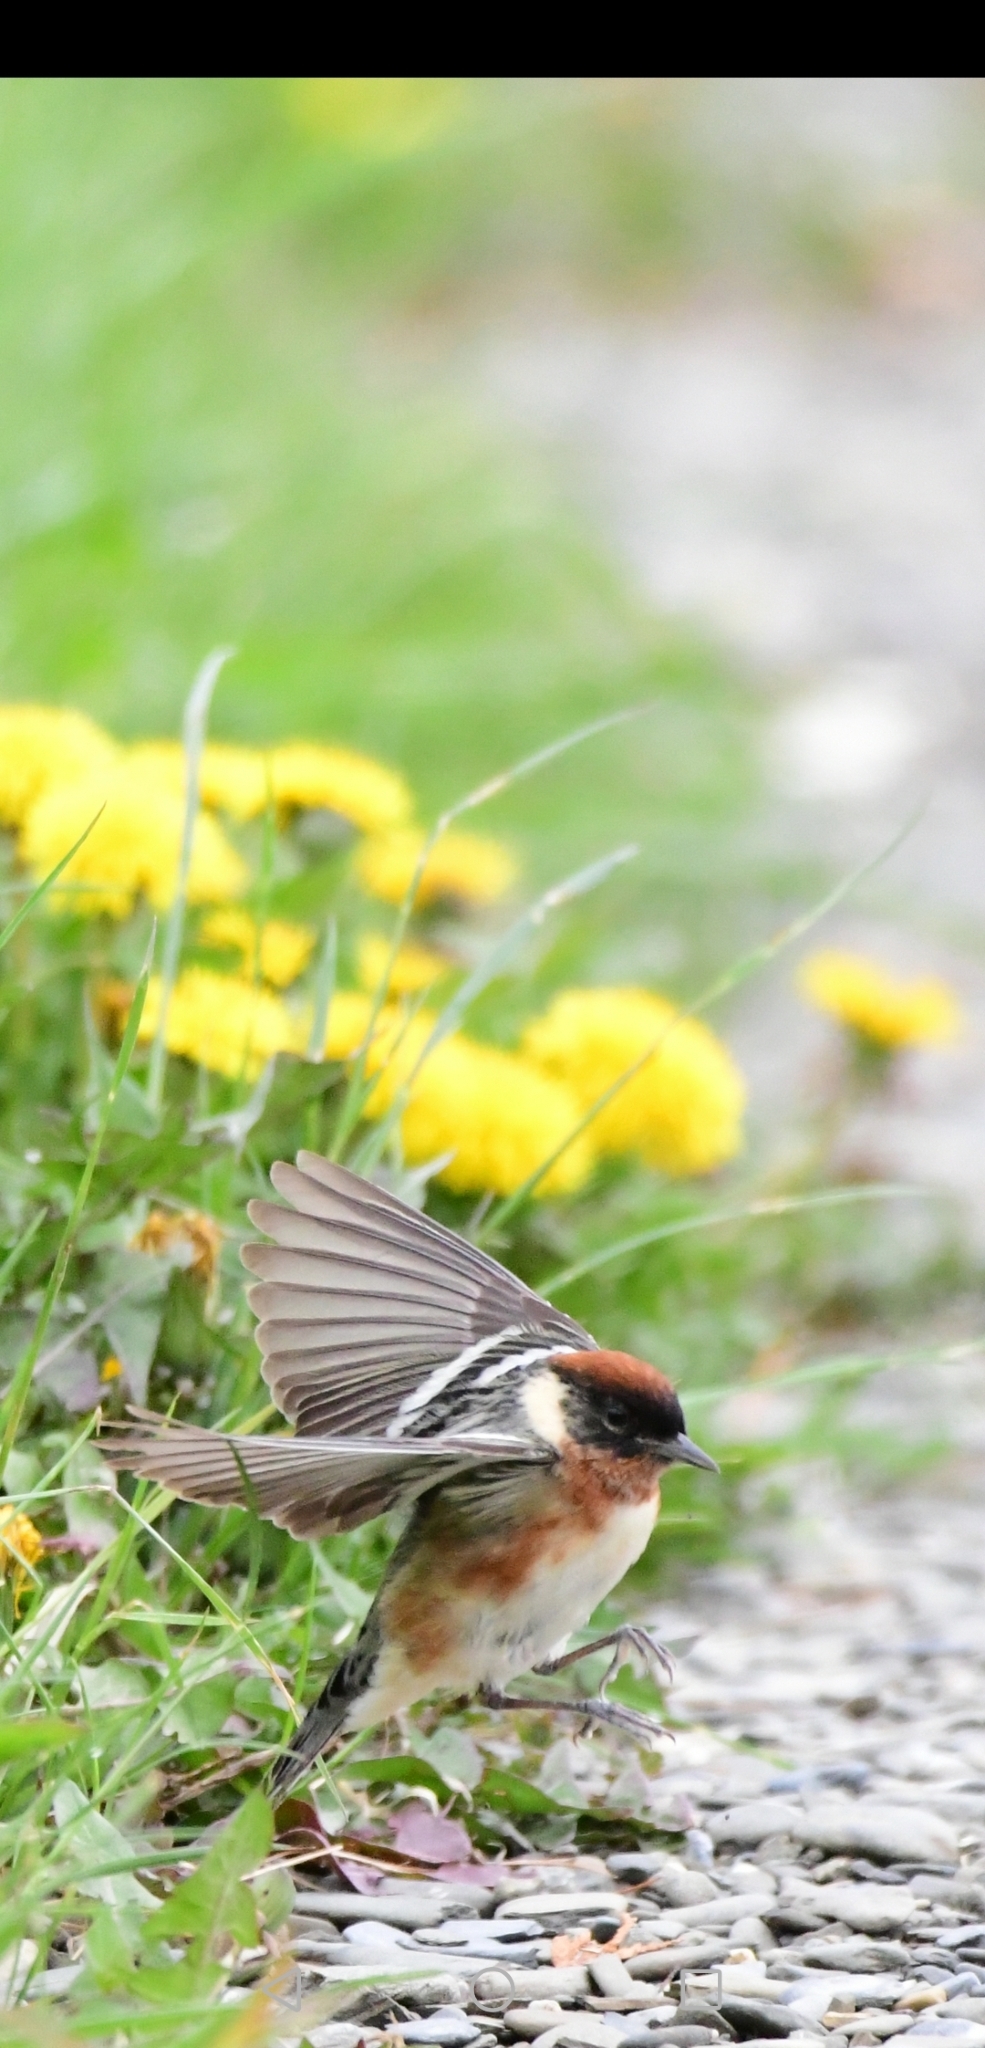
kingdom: Animalia
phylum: Chordata
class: Aves
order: Passeriformes
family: Parulidae
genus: Setophaga
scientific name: Setophaga castanea
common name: Bay-breasted warbler
